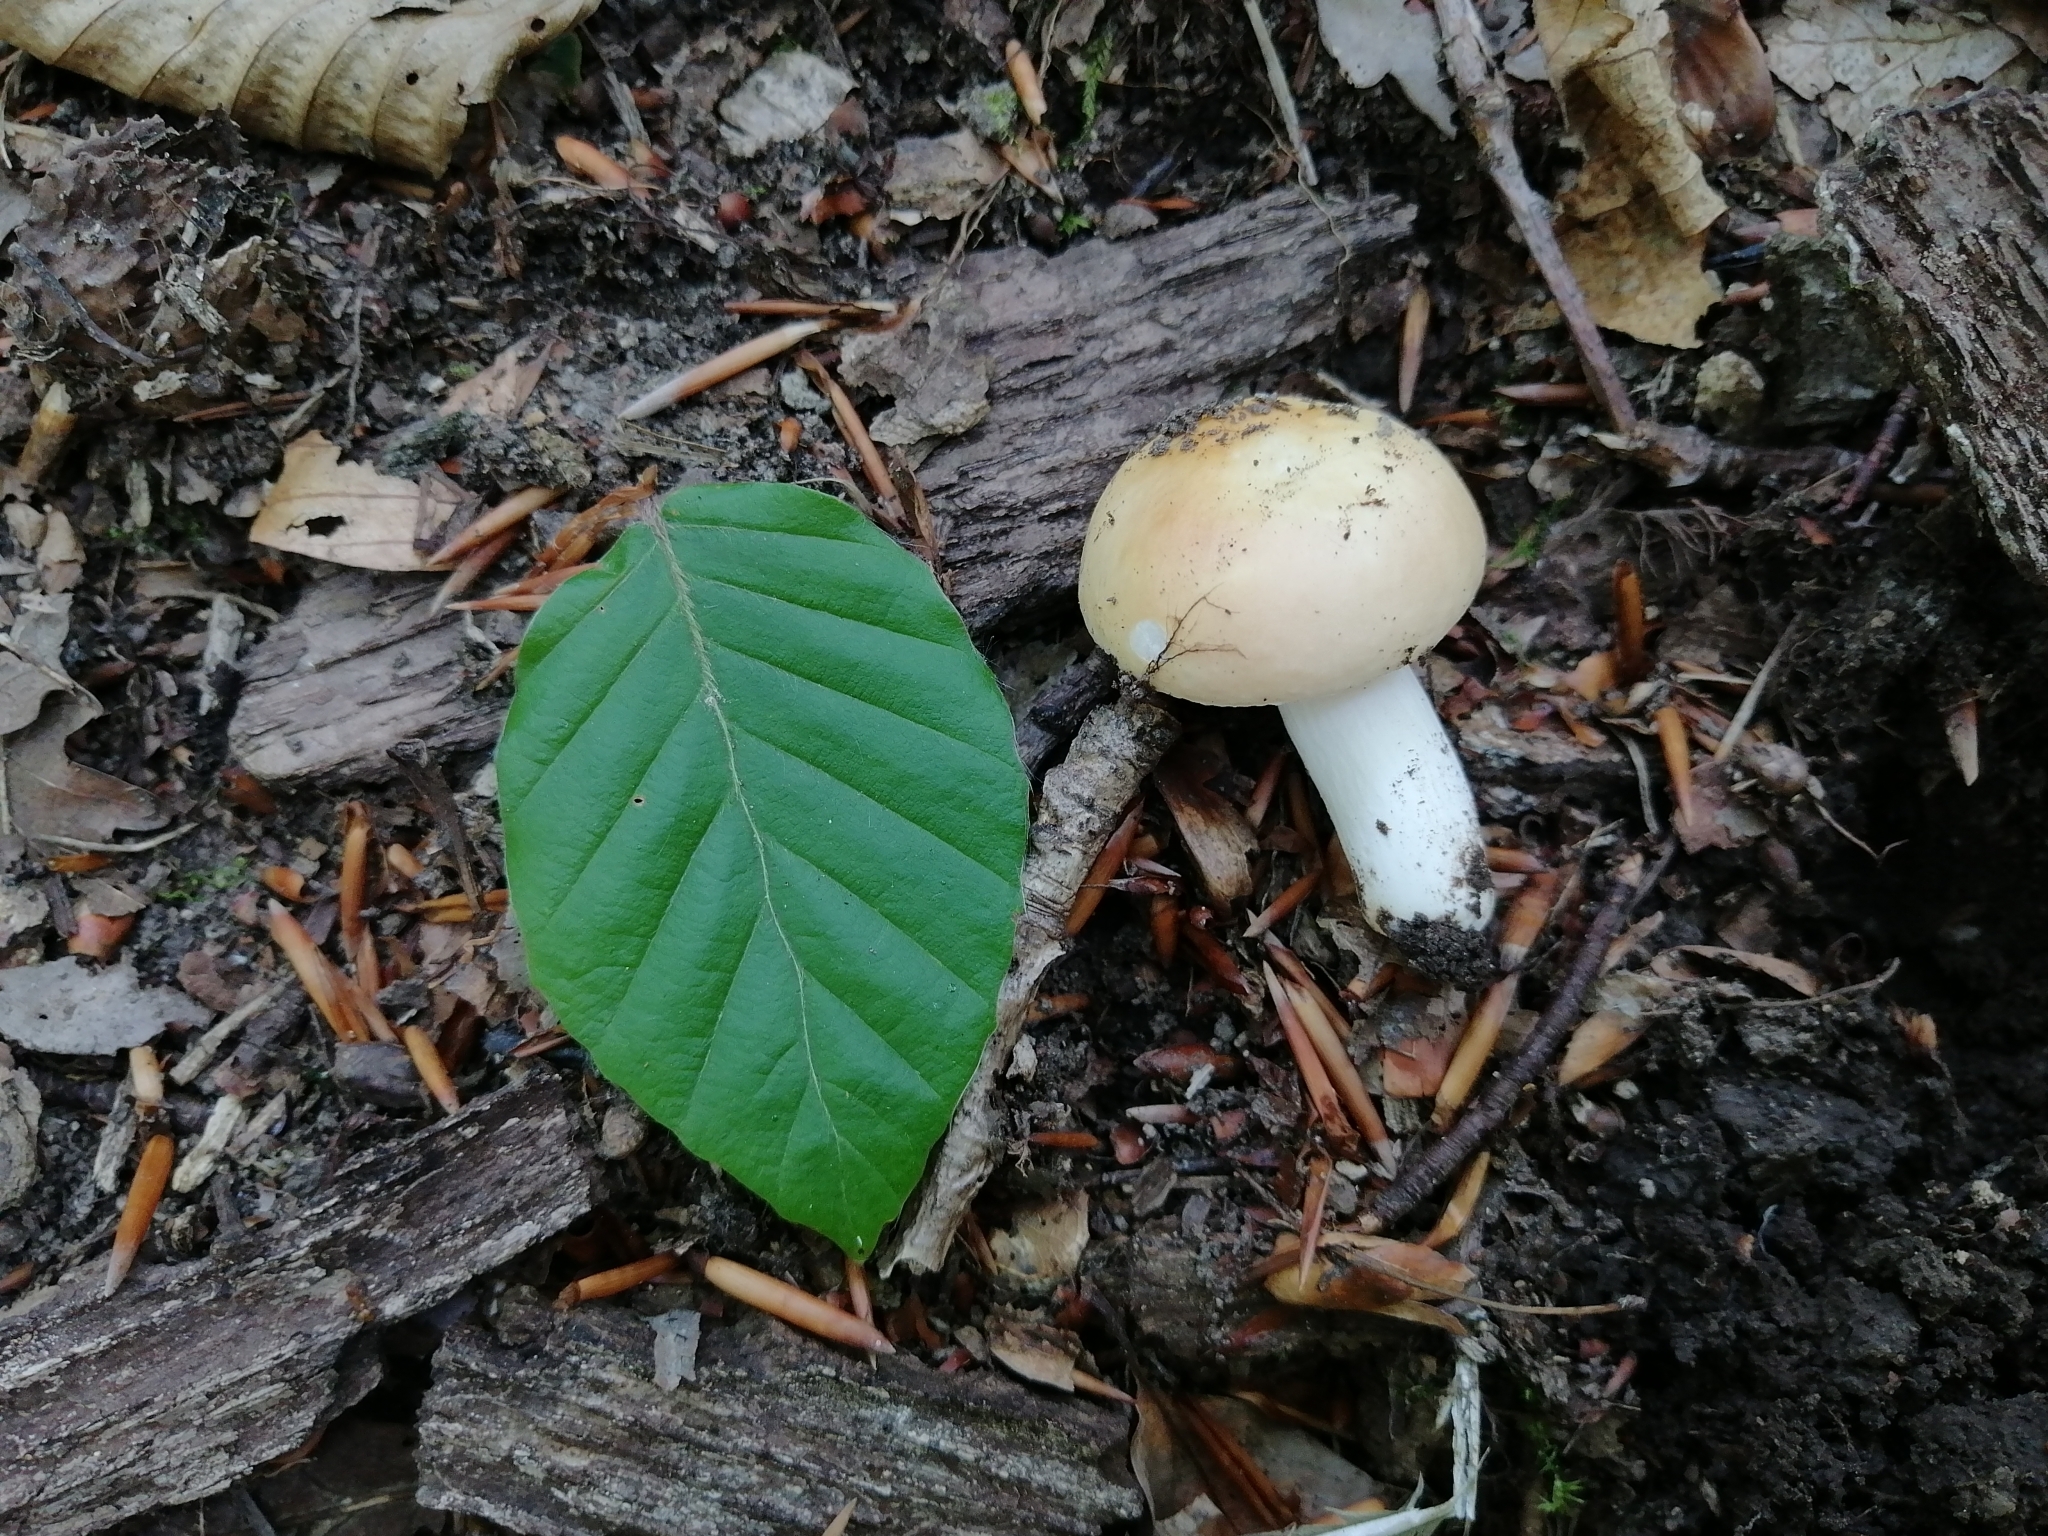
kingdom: Fungi
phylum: Basidiomycota
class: Agaricomycetes
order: Russulales
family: Russulaceae
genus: Russula
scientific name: Russula fellea
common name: Geranium brittlegill
